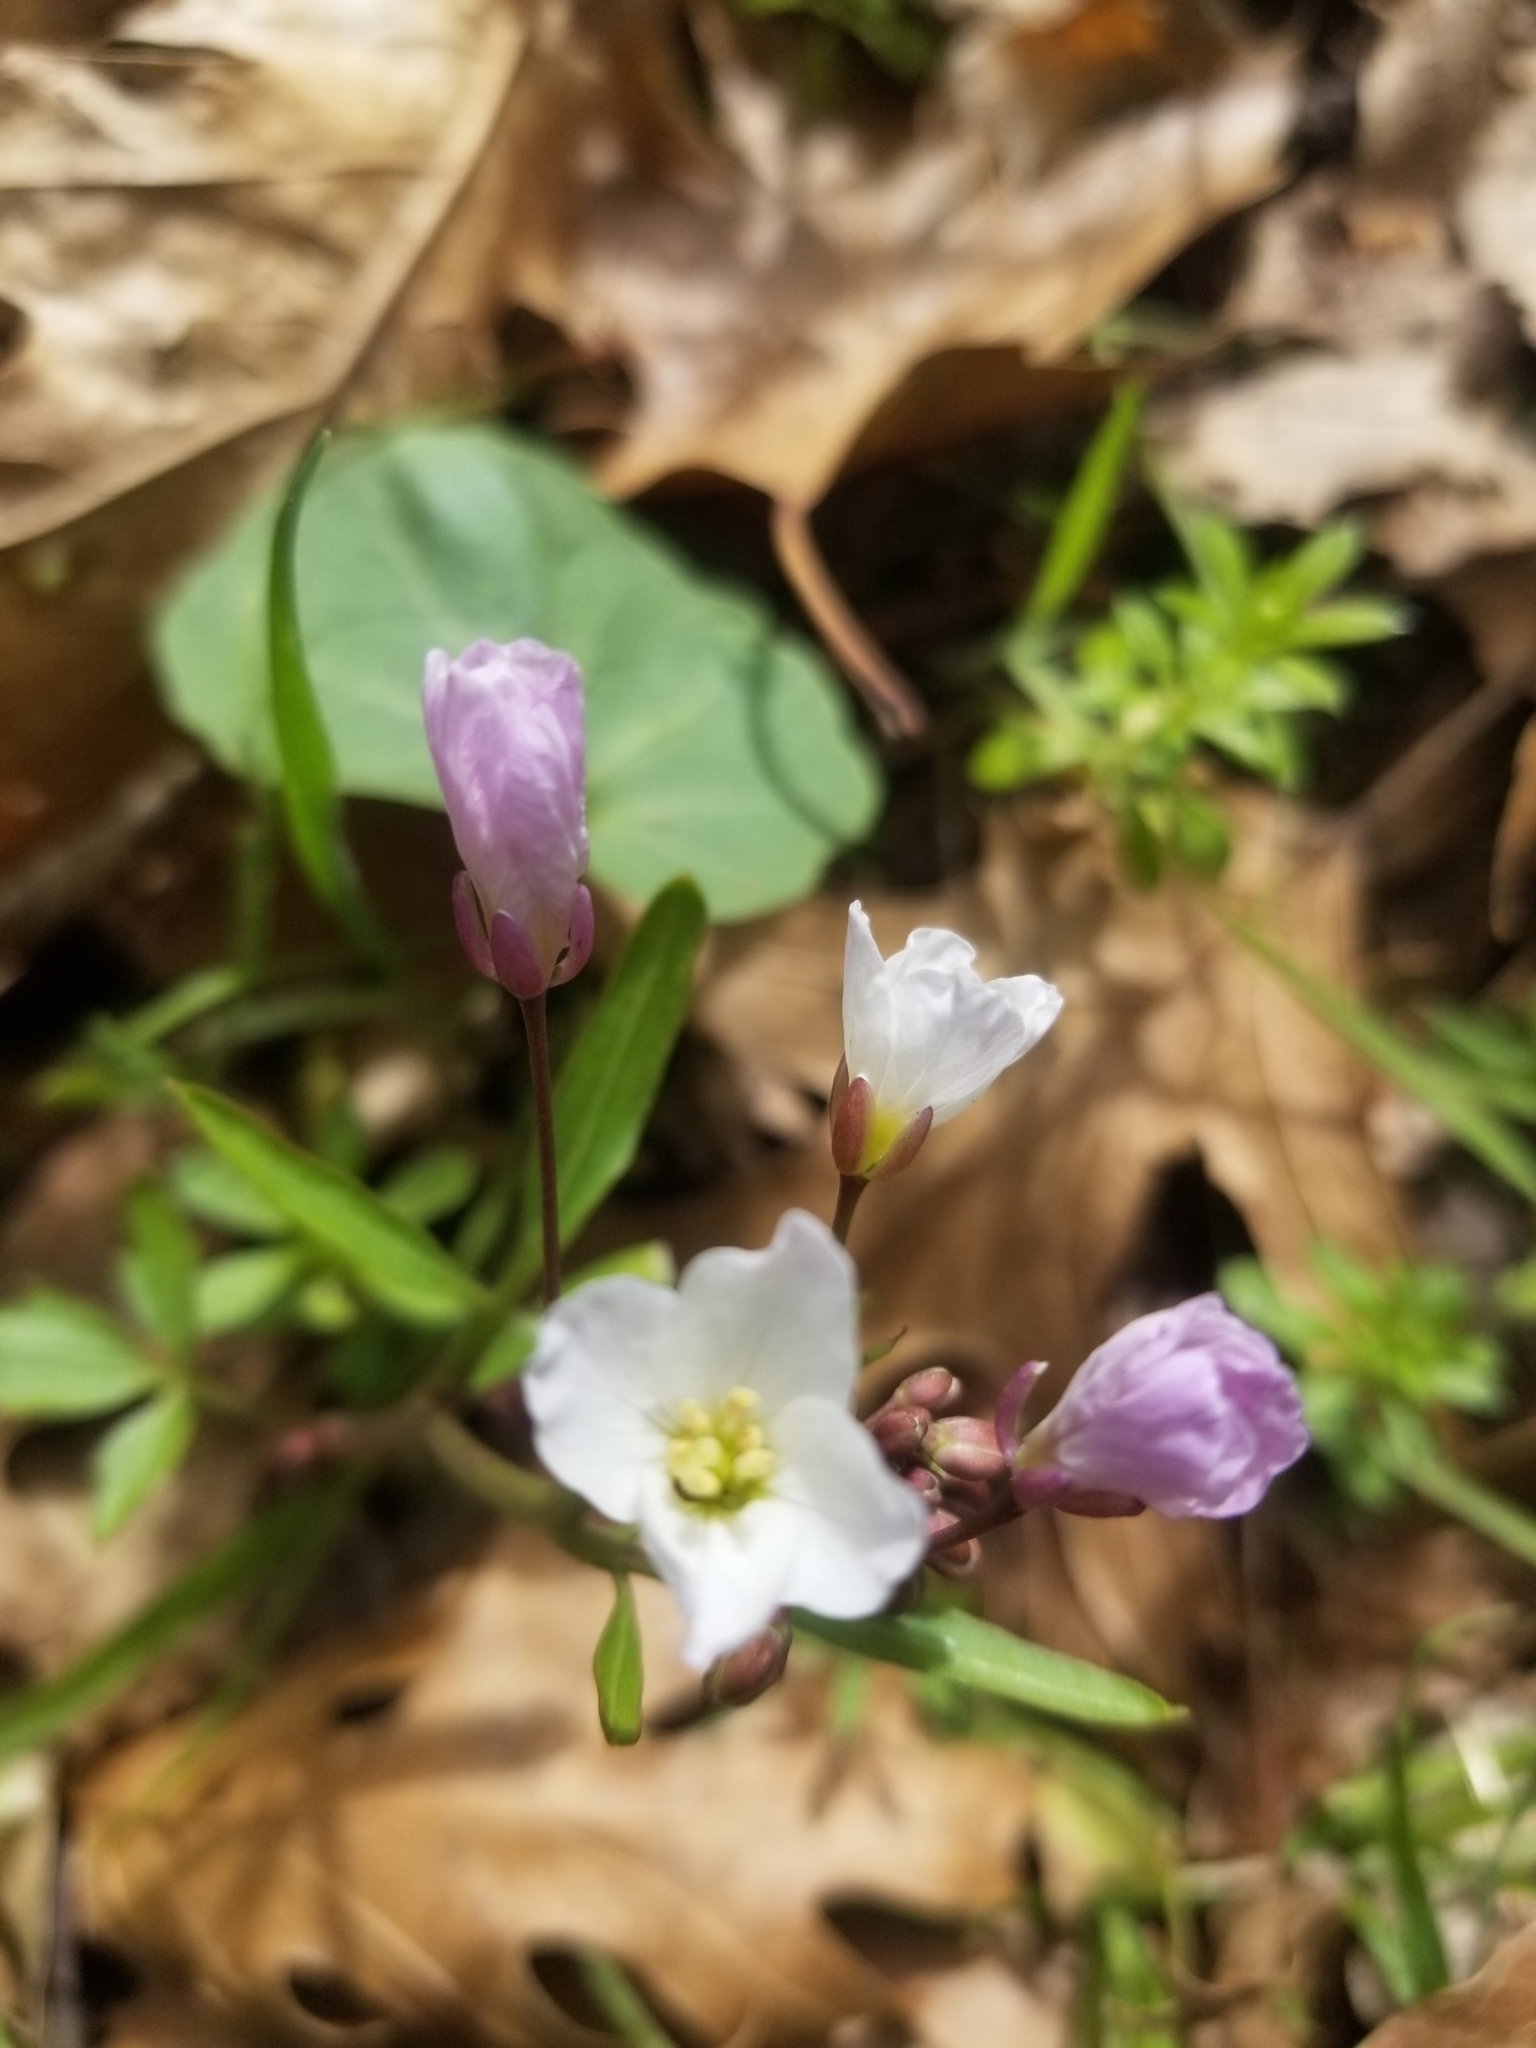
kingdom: Plantae
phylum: Tracheophyta
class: Magnoliopsida
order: Brassicales
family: Brassicaceae
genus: Cardamine
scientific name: Cardamine californica
